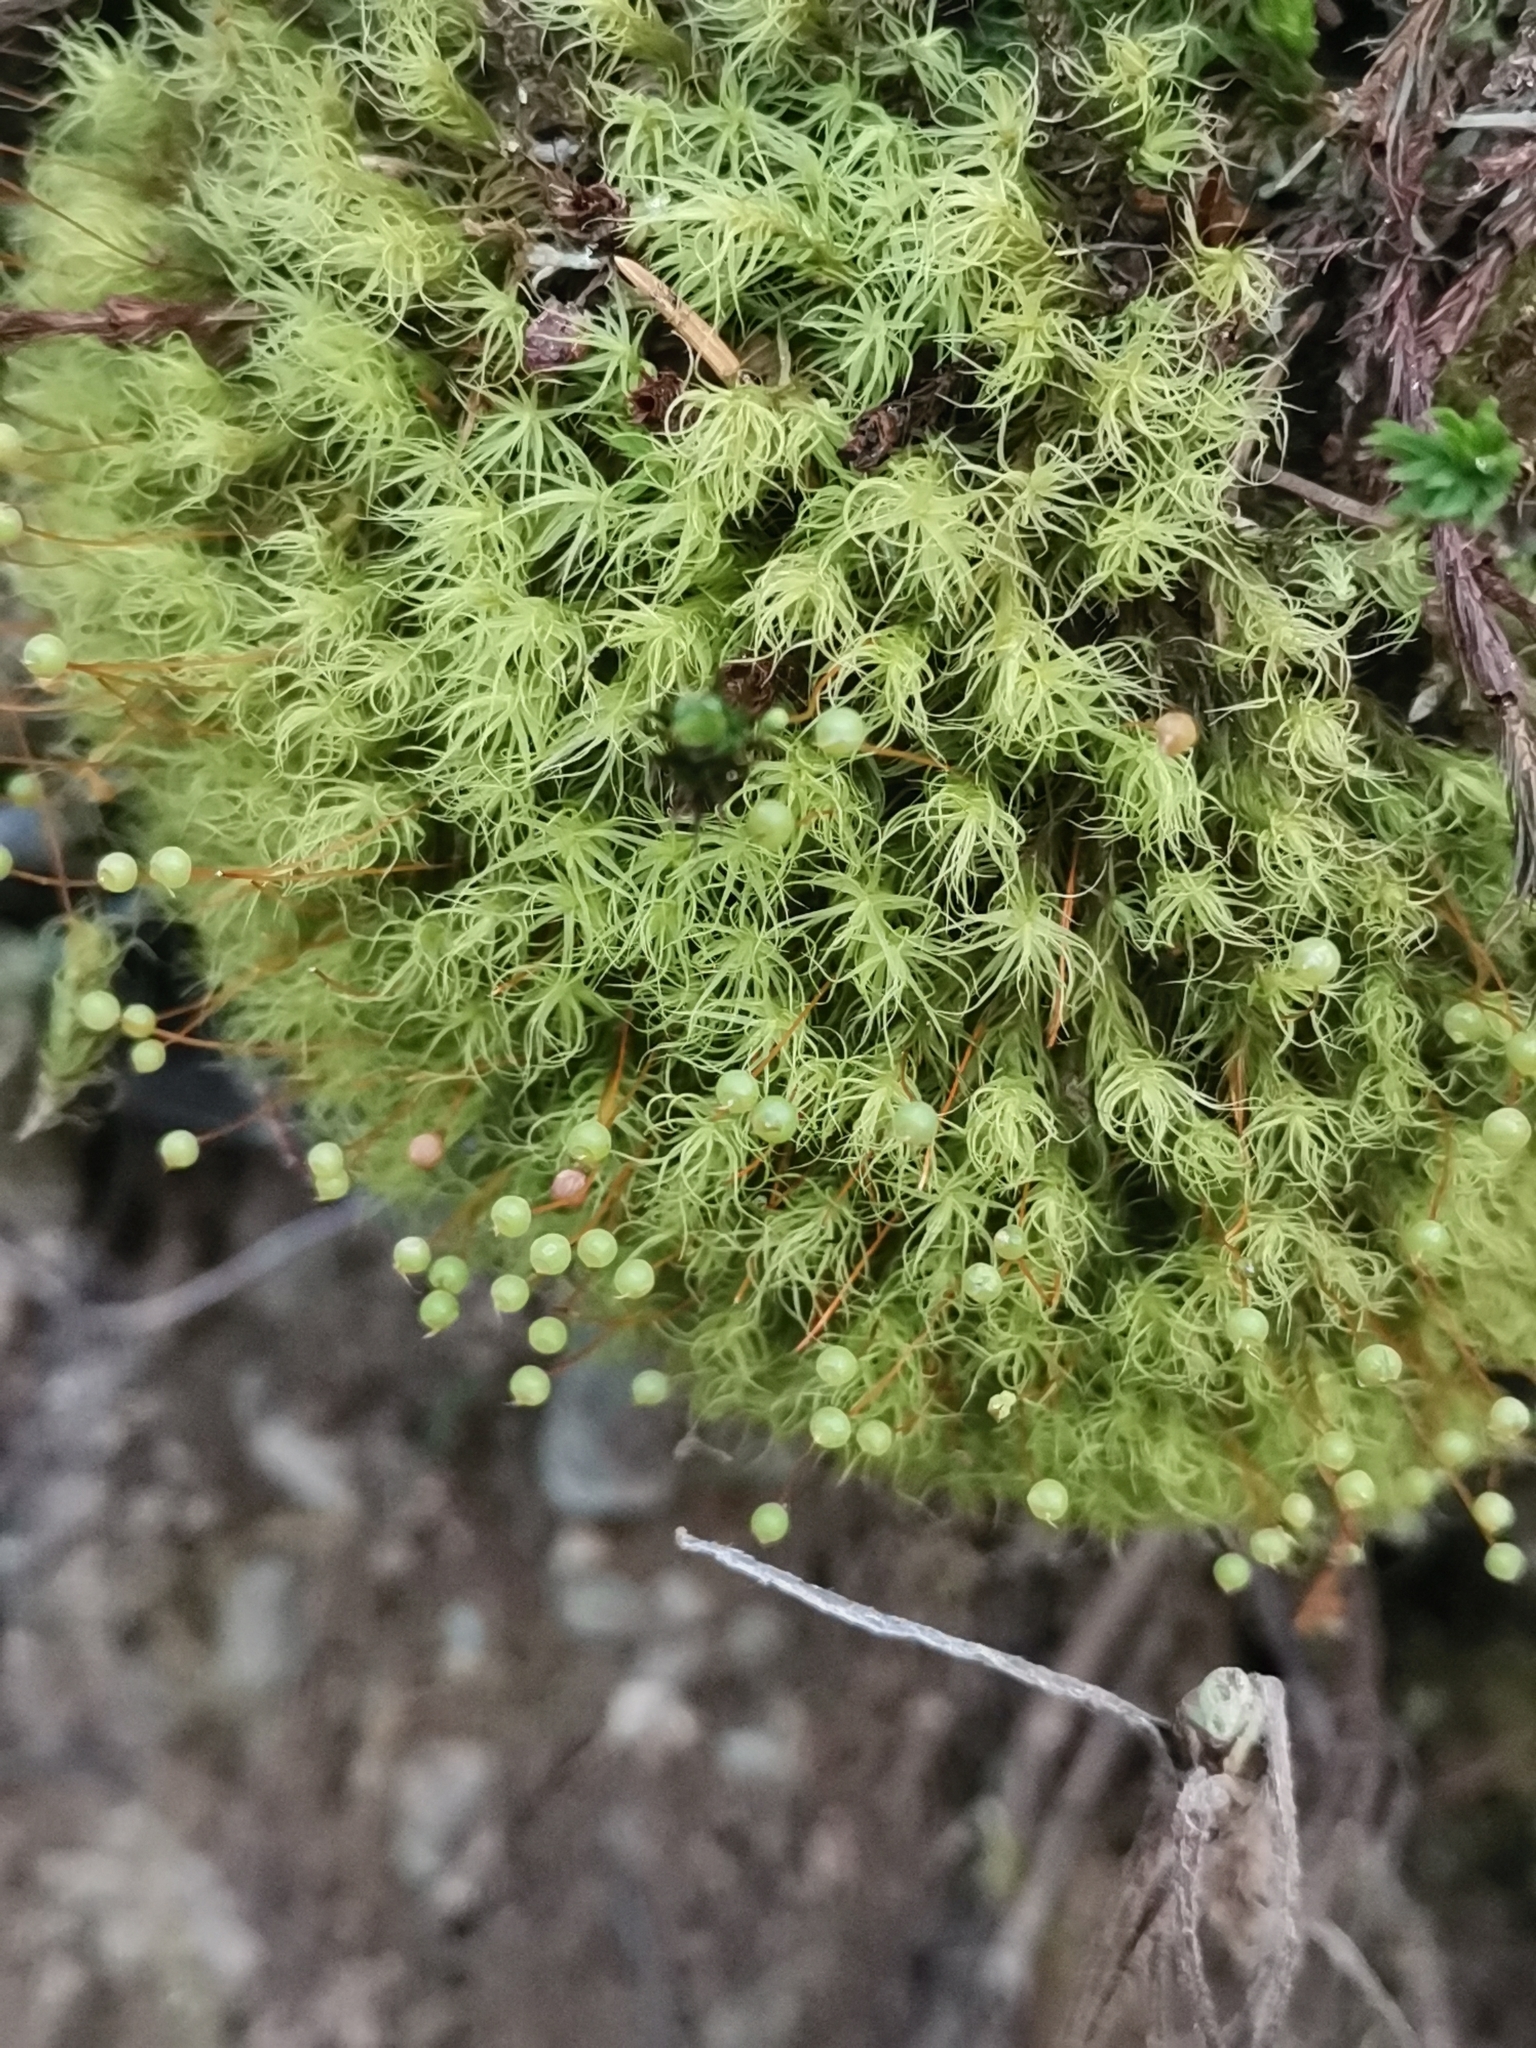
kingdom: Plantae
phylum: Bryophyta
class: Bryopsida
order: Bartramiales
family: Bartramiaceae
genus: Bartramia
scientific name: Bartramia ithyphylla
